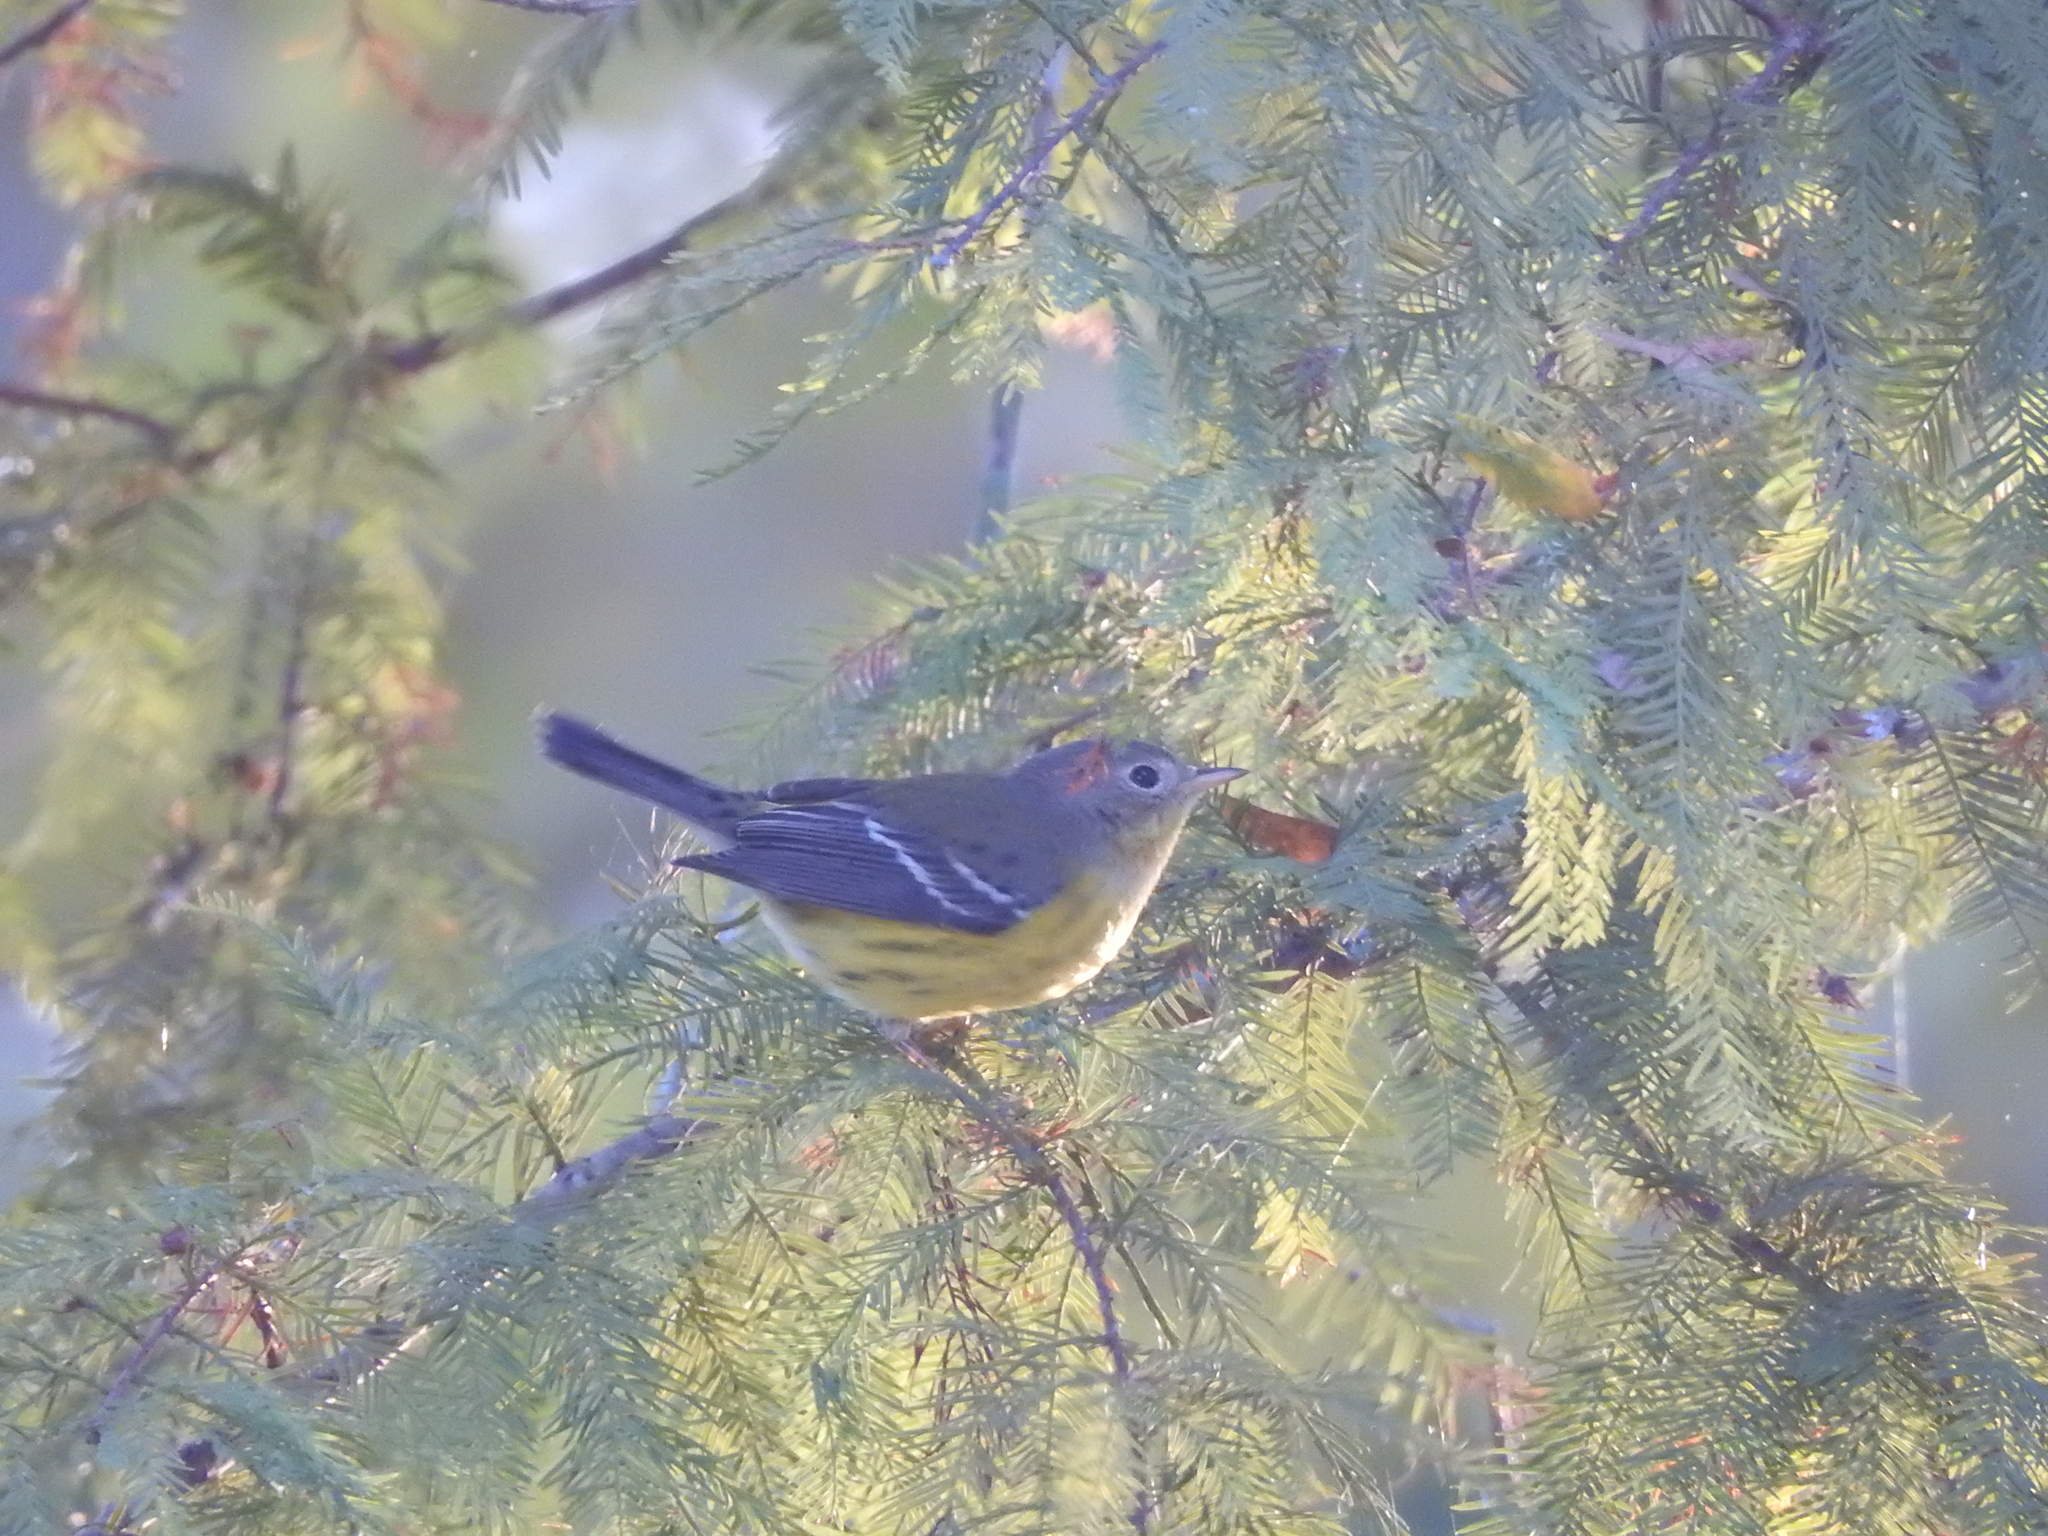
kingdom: Animalia
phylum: Chordata
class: Aves
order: Passeriformes
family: Parulidae
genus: Setophaga
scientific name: Setophaga magnolia
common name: Magnolia warbler
